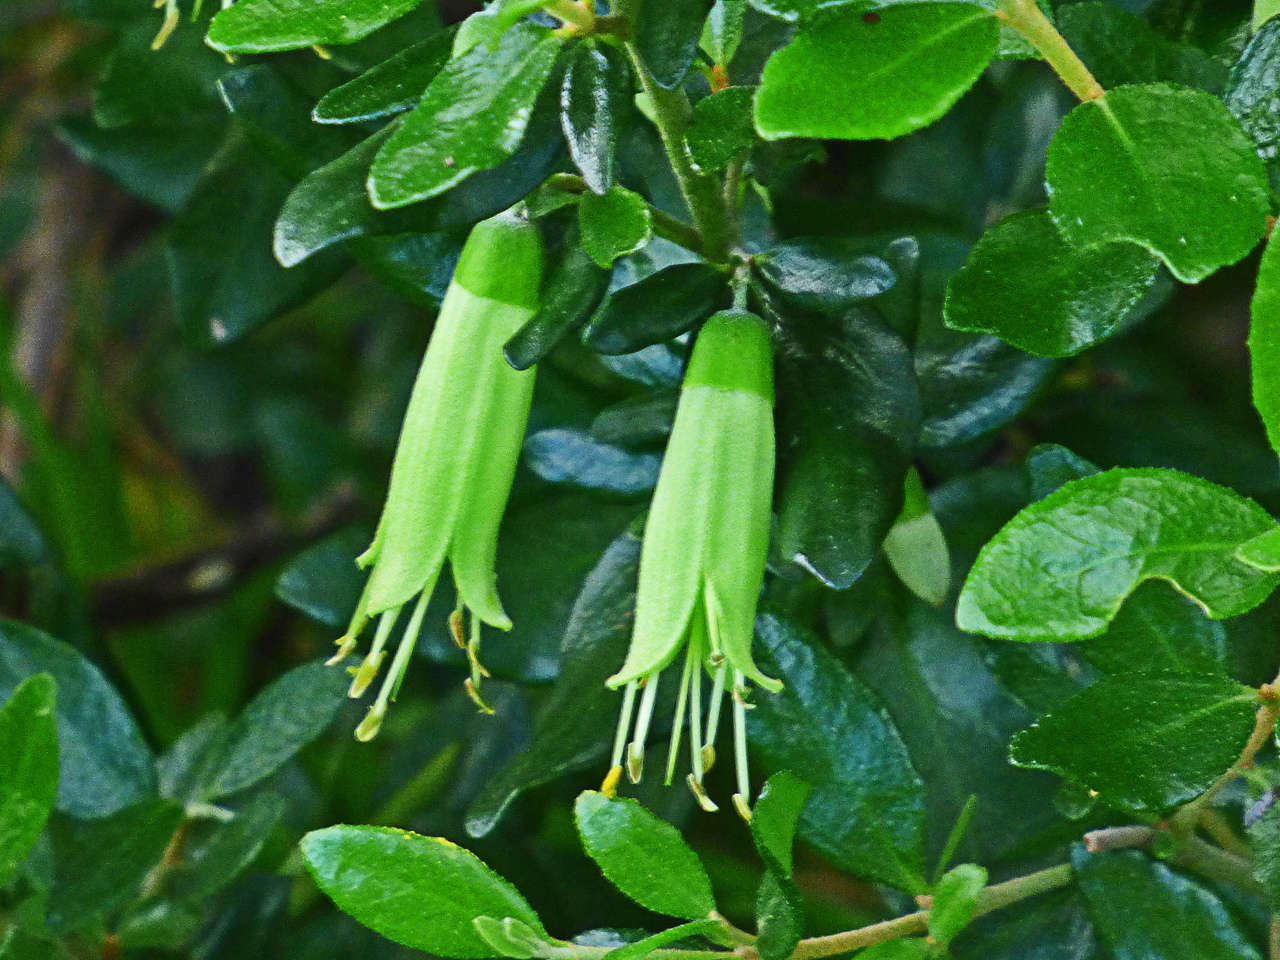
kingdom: Plantae
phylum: Tracheophyta
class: Magnoliopsida
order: Sapindales
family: Rutaceae
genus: Correa
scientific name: Correa glabra
